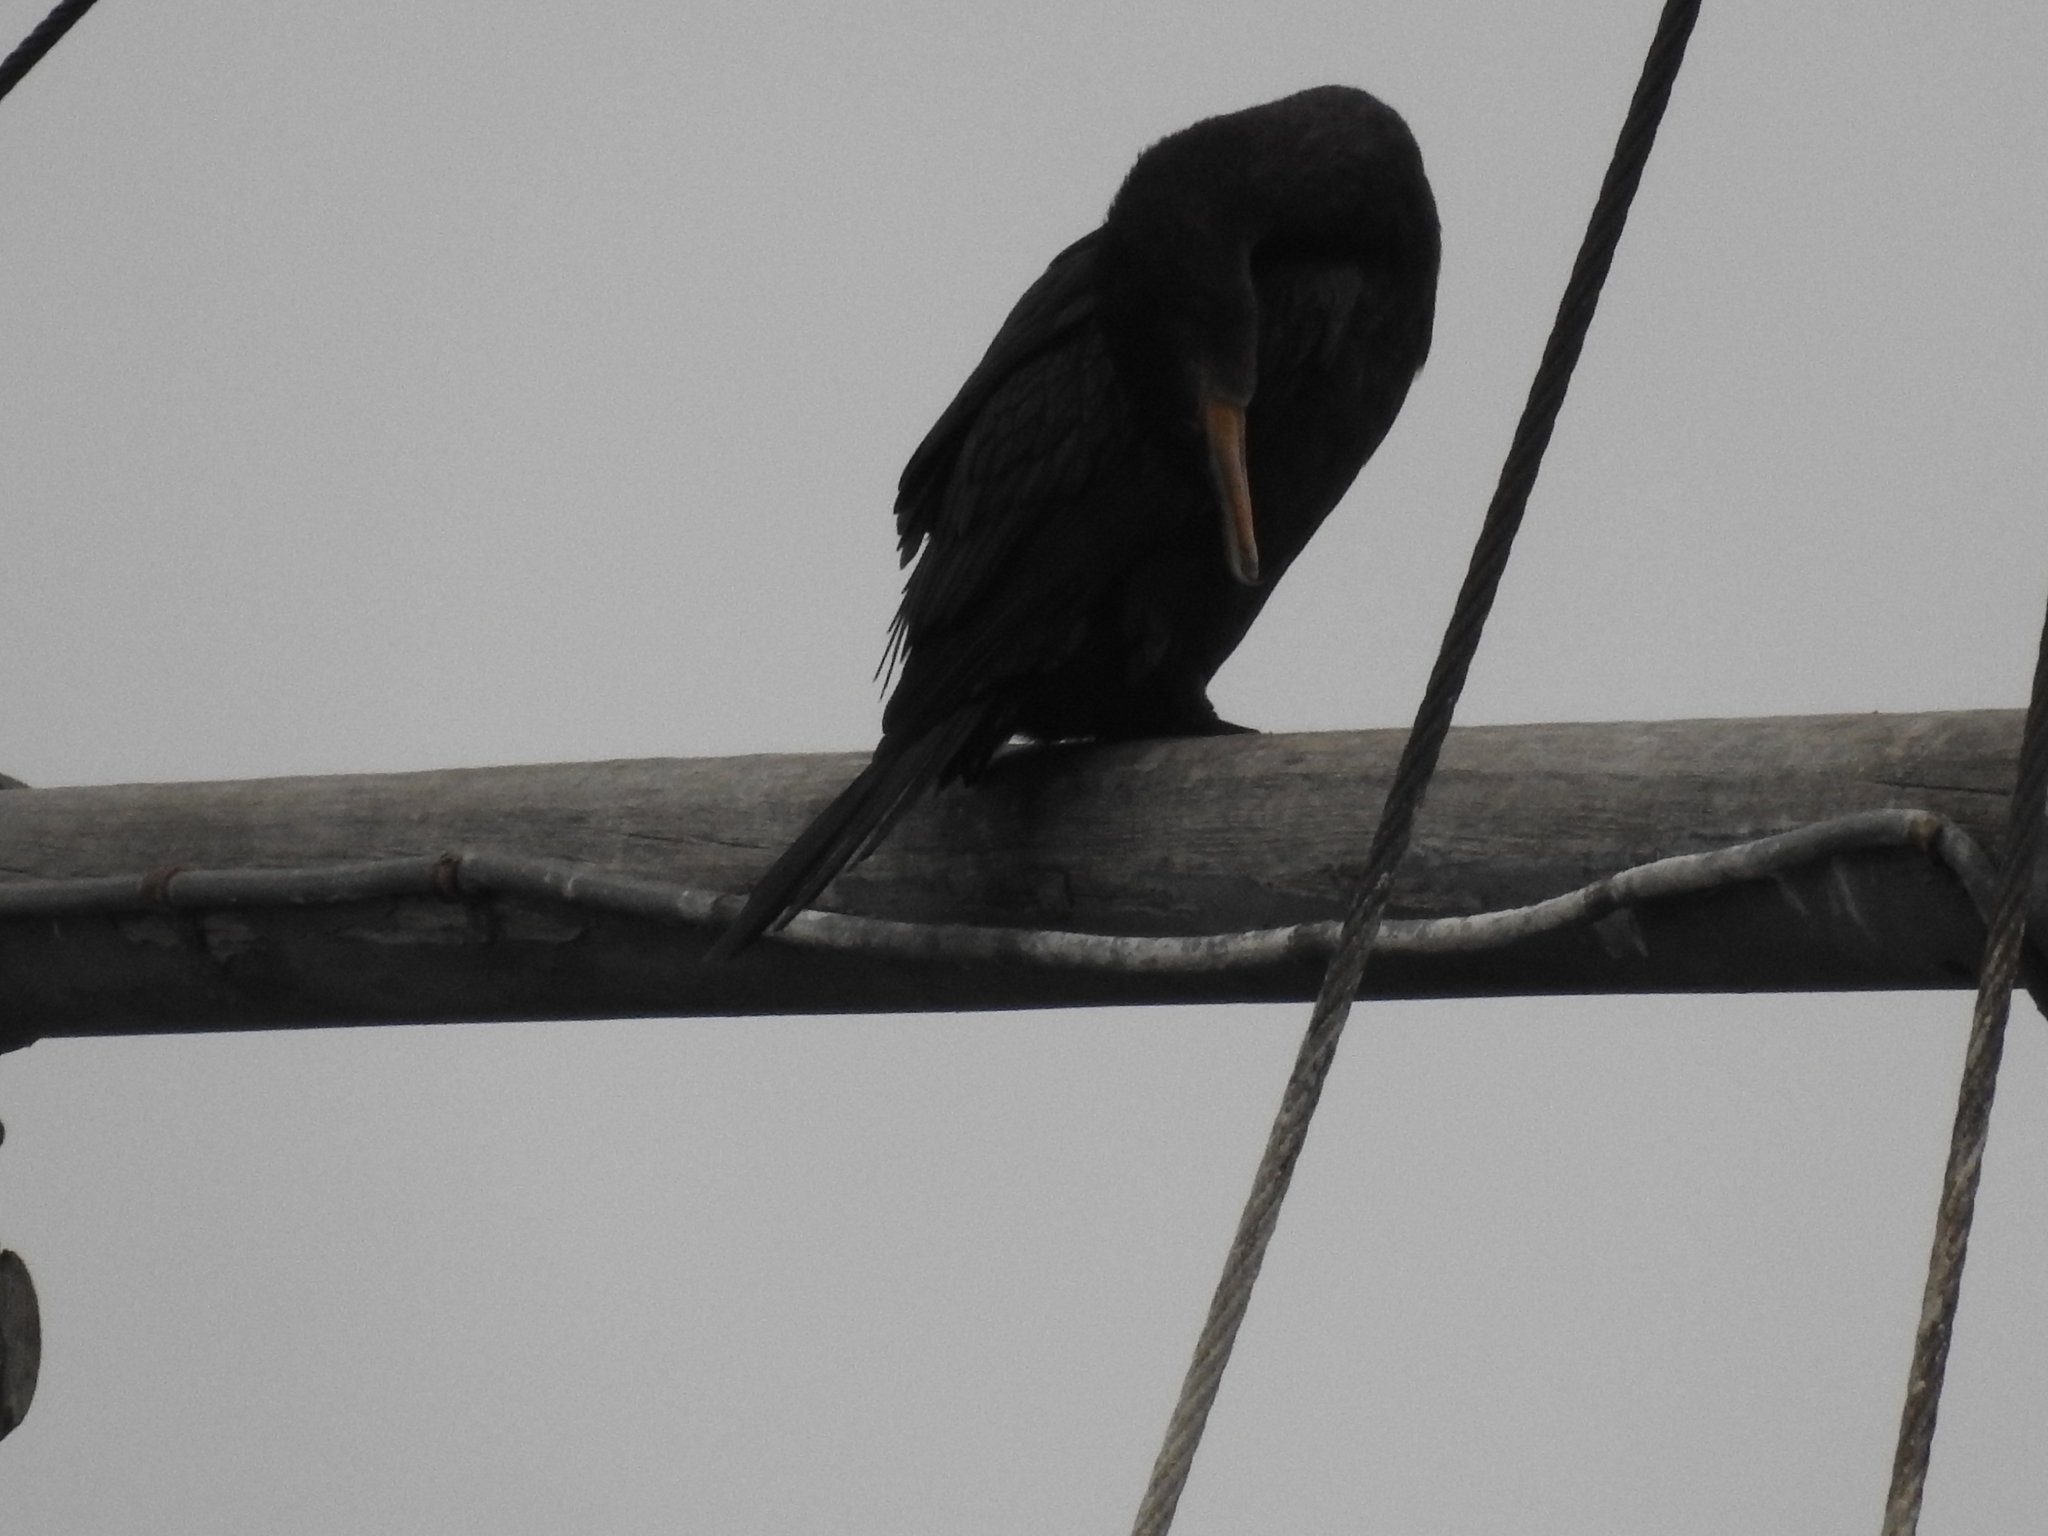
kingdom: Animalia
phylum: Chordata
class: Aves
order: Suliformes
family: Phalacrocoracidae
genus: Phalacrocorax
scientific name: Phalacrocorax brasilianus
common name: Neotropic cormorant
